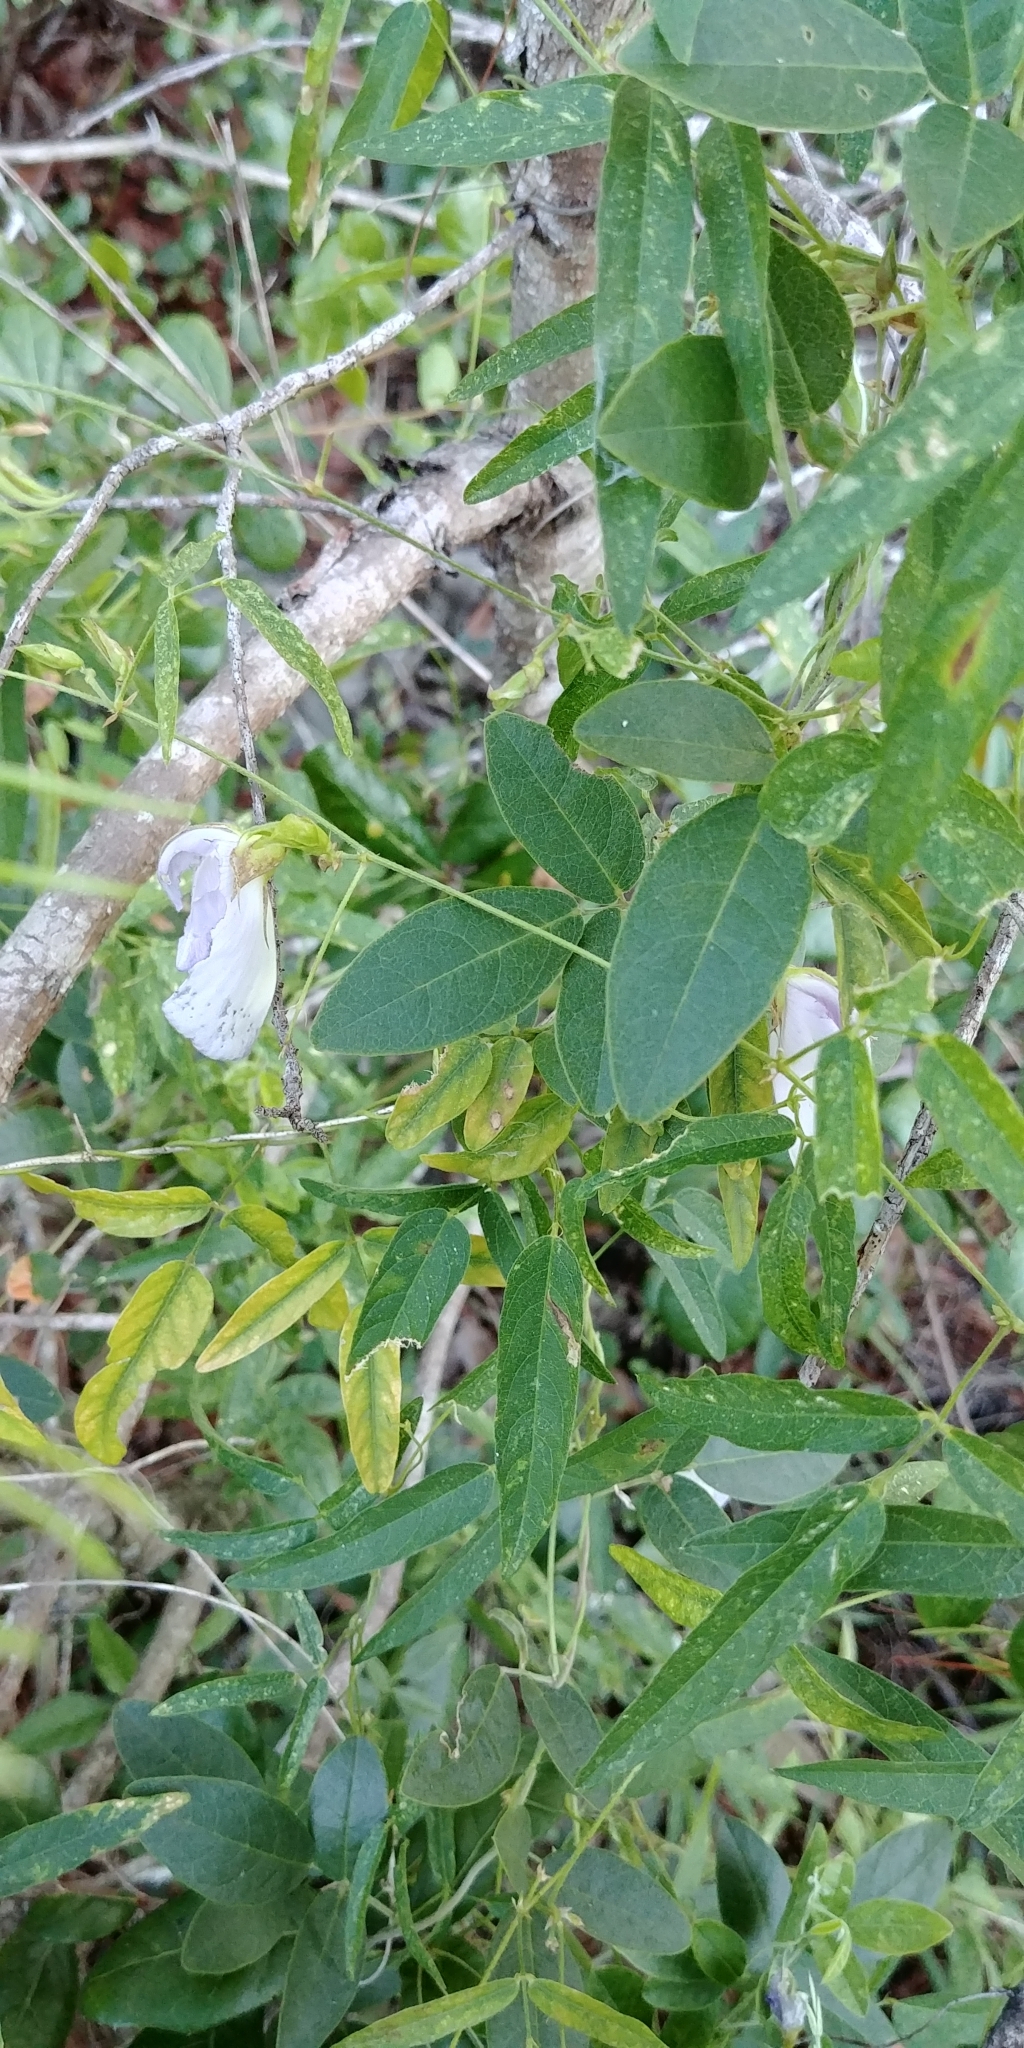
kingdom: Plantae
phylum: Tracheophyta
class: Magnoliopsida
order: Fabales
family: Fabaceae
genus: Centrosema
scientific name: Centrosema virginianum
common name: Butterfly-pea
